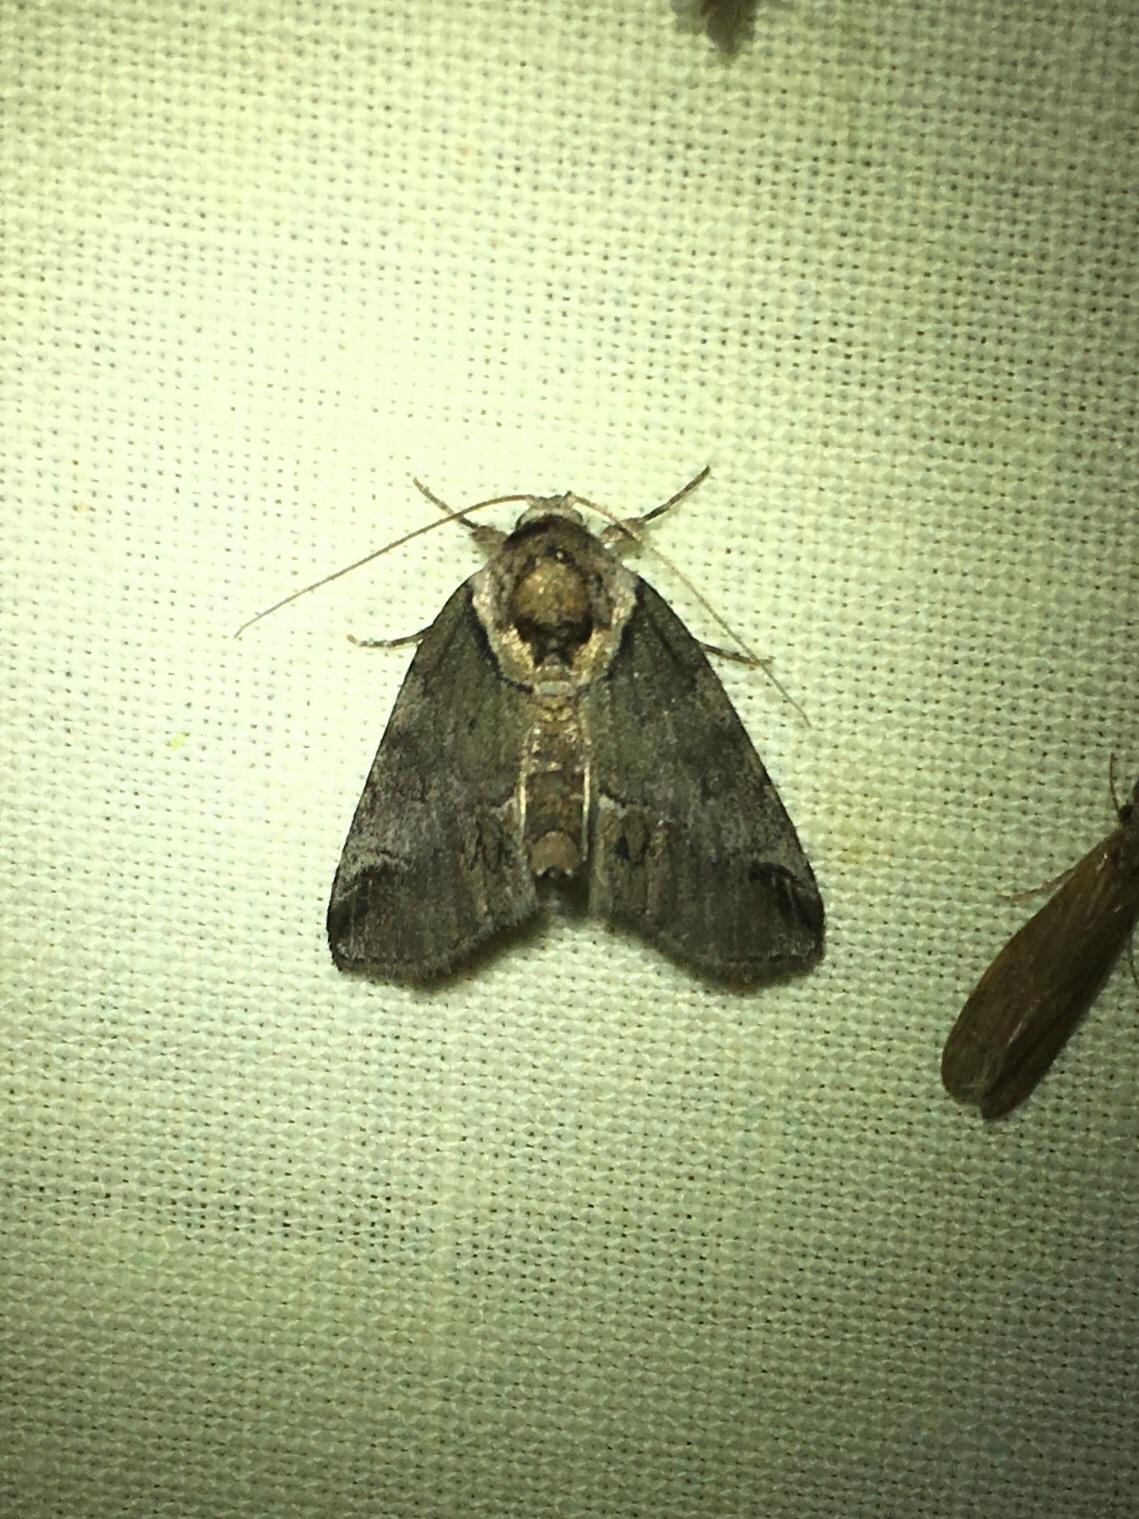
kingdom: Animalia
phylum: Arthropoda
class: Insecta
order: Lepidoptera
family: Nolidae
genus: Baileya
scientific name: Baileya australis
